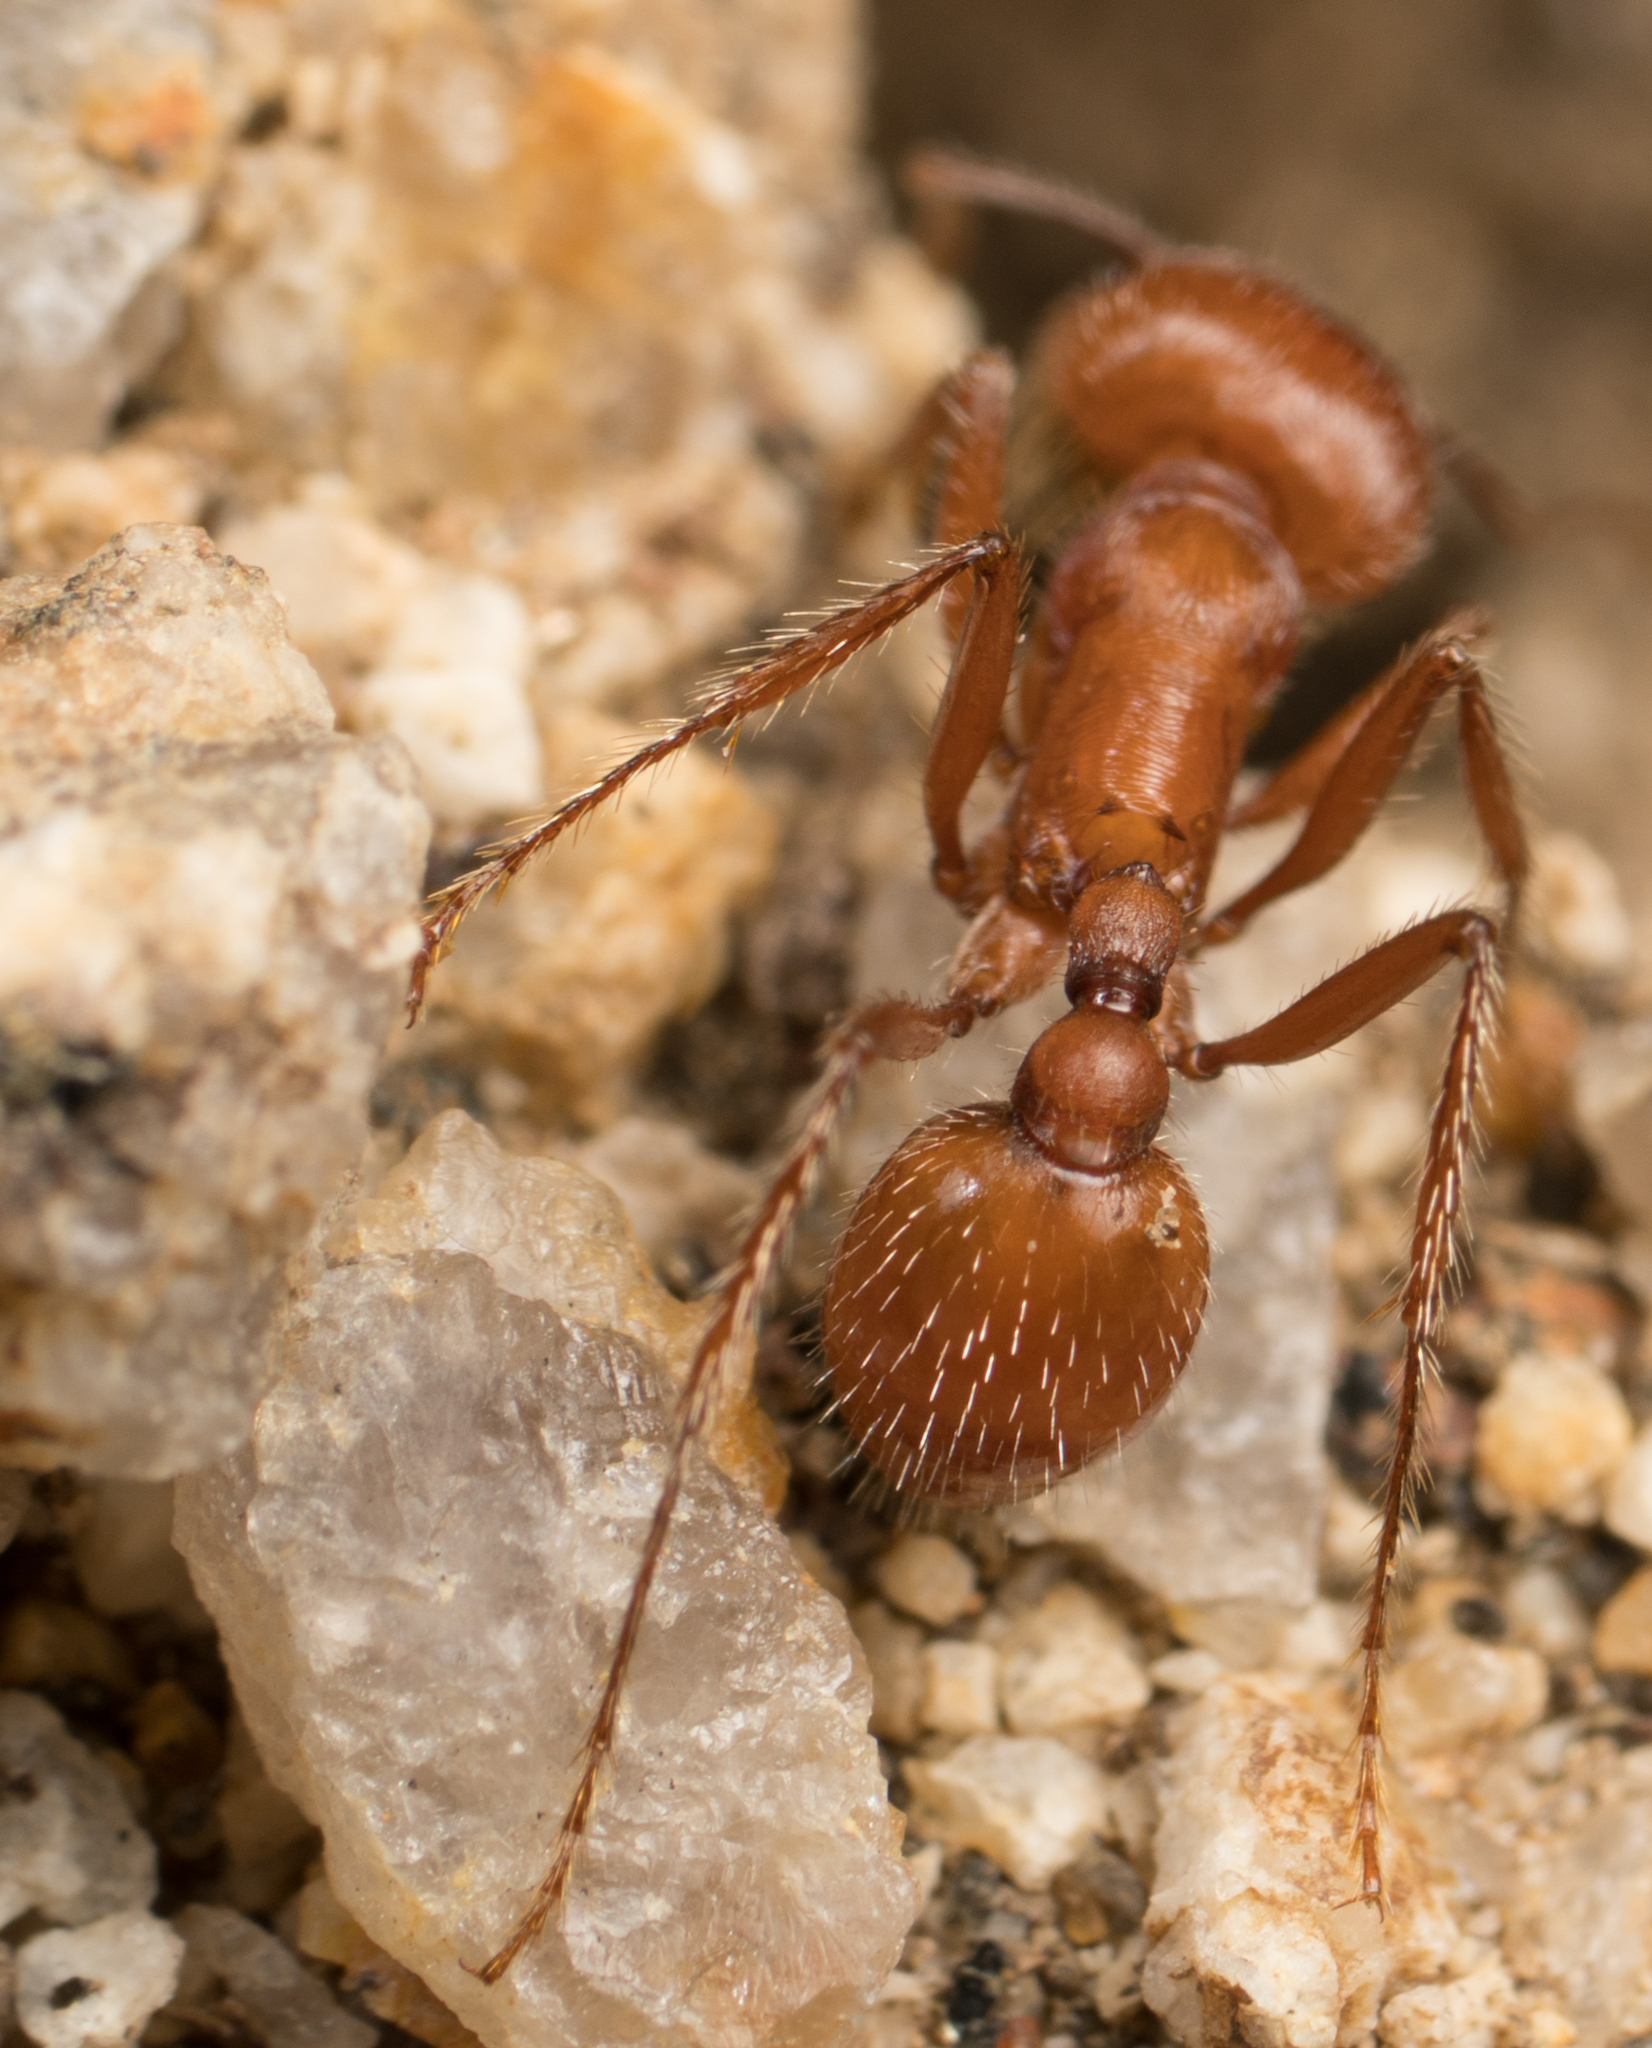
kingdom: Animalia
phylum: Arthropoda
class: Insecta
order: Hymenoptera
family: Formicidae
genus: Pogonomyrmex
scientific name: Pogonomyrmex subnitidus
